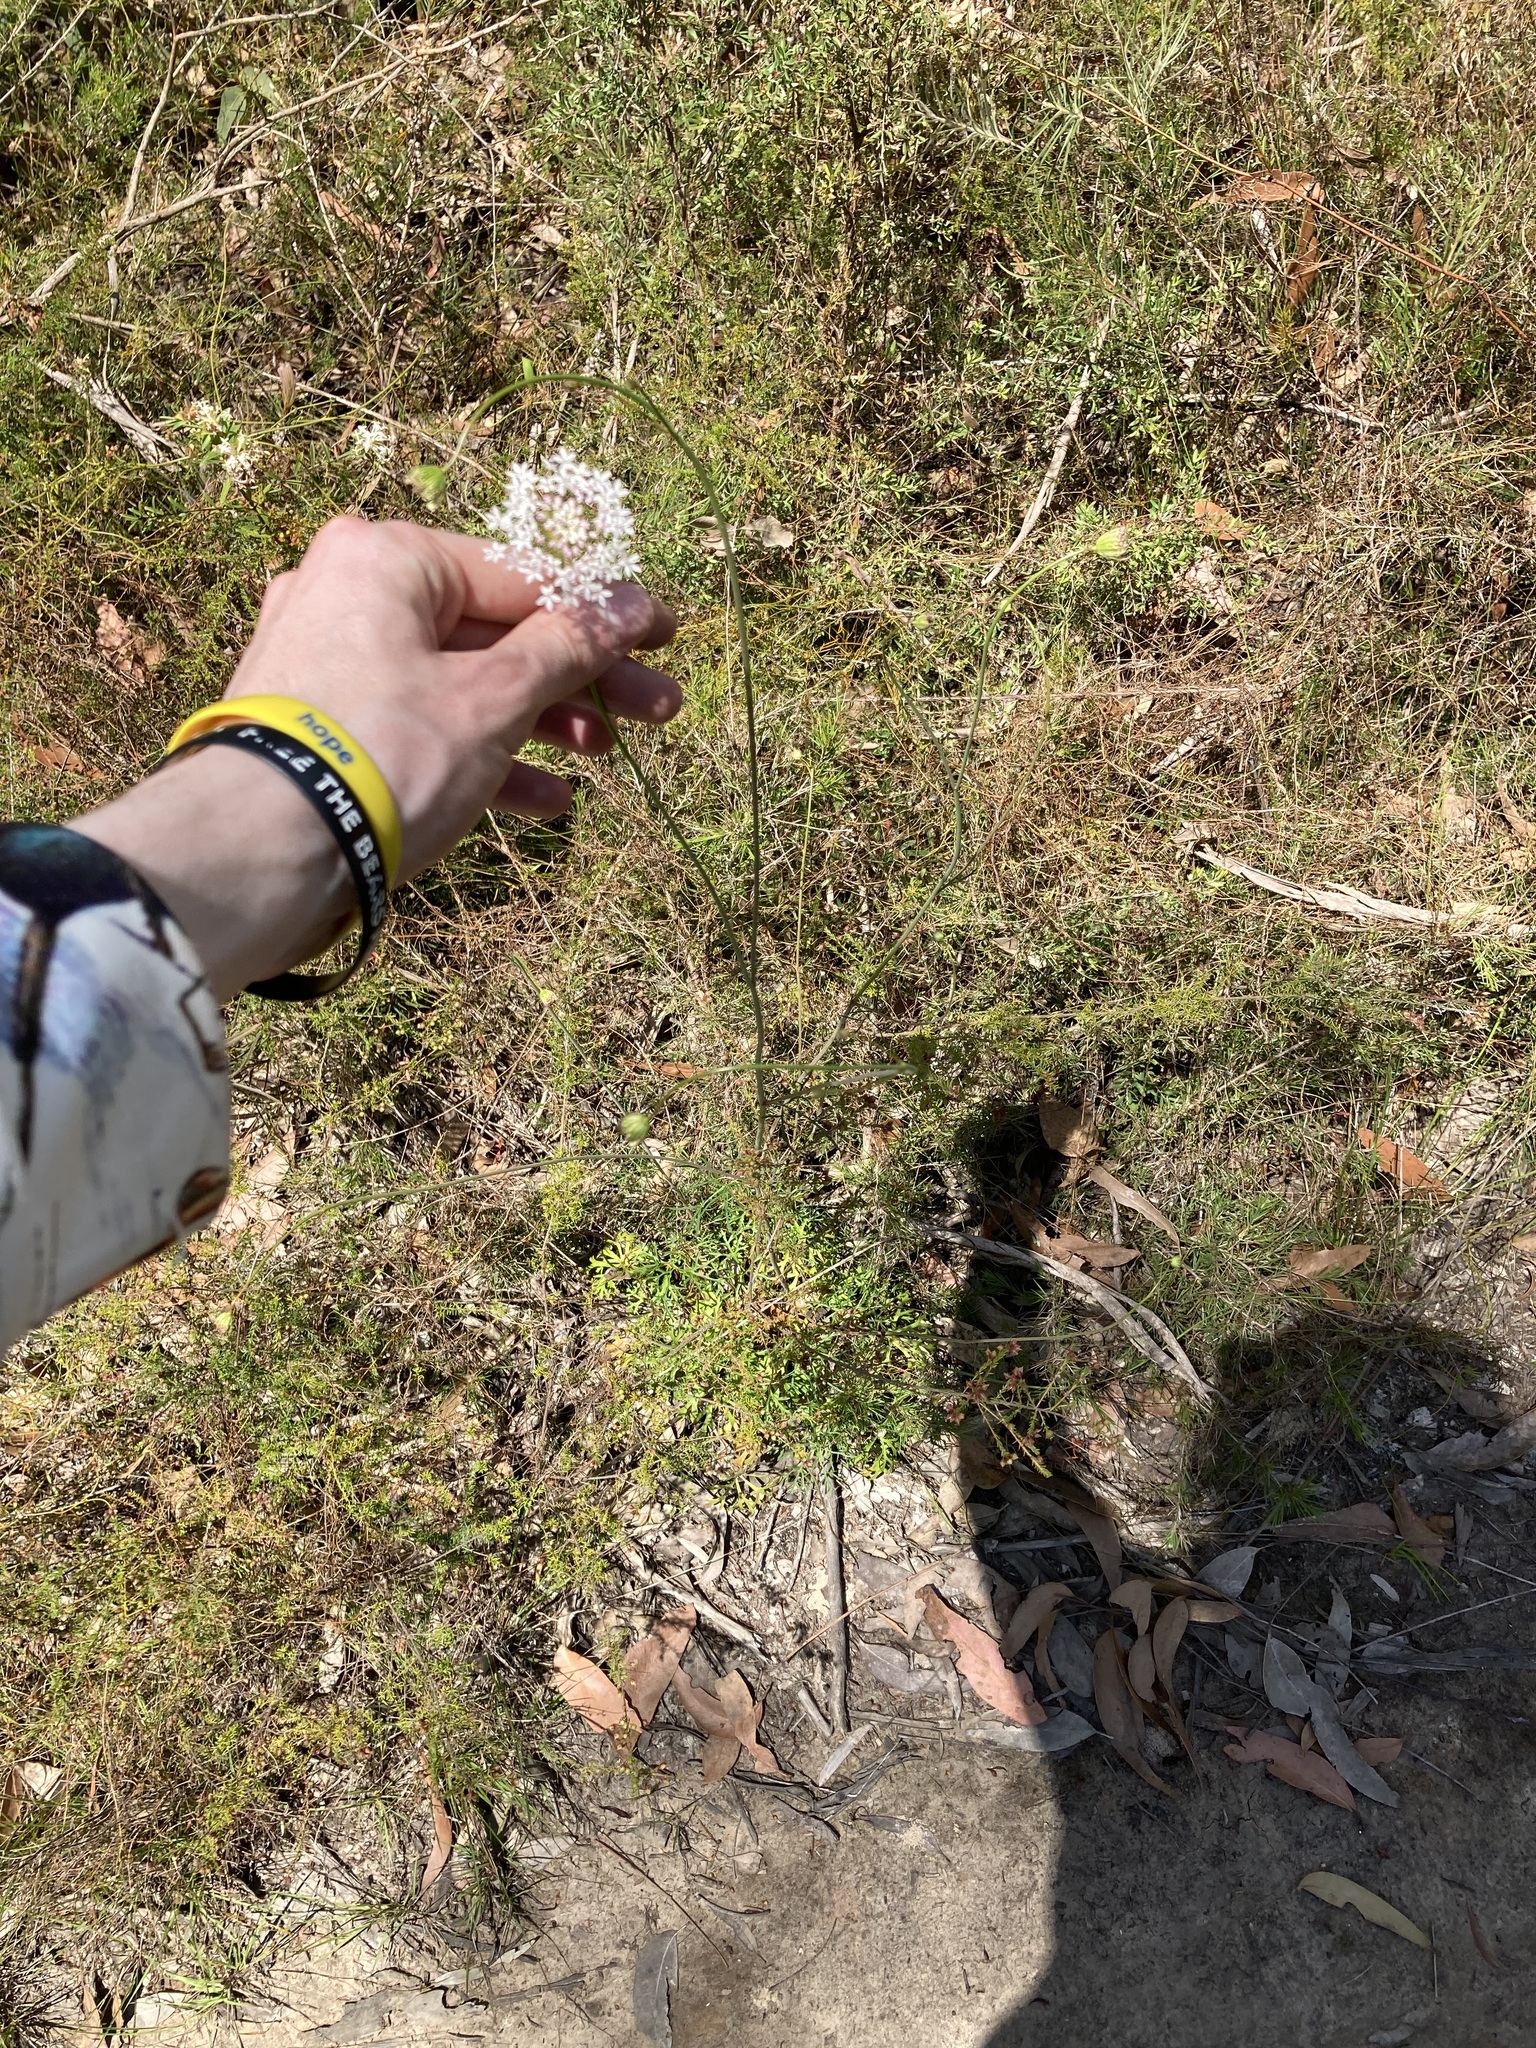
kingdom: Plantae
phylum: Tracheophyta
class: Magnoliopsida
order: Apiales
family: Araliaceae
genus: Trachymene
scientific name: Trachymene incisa
